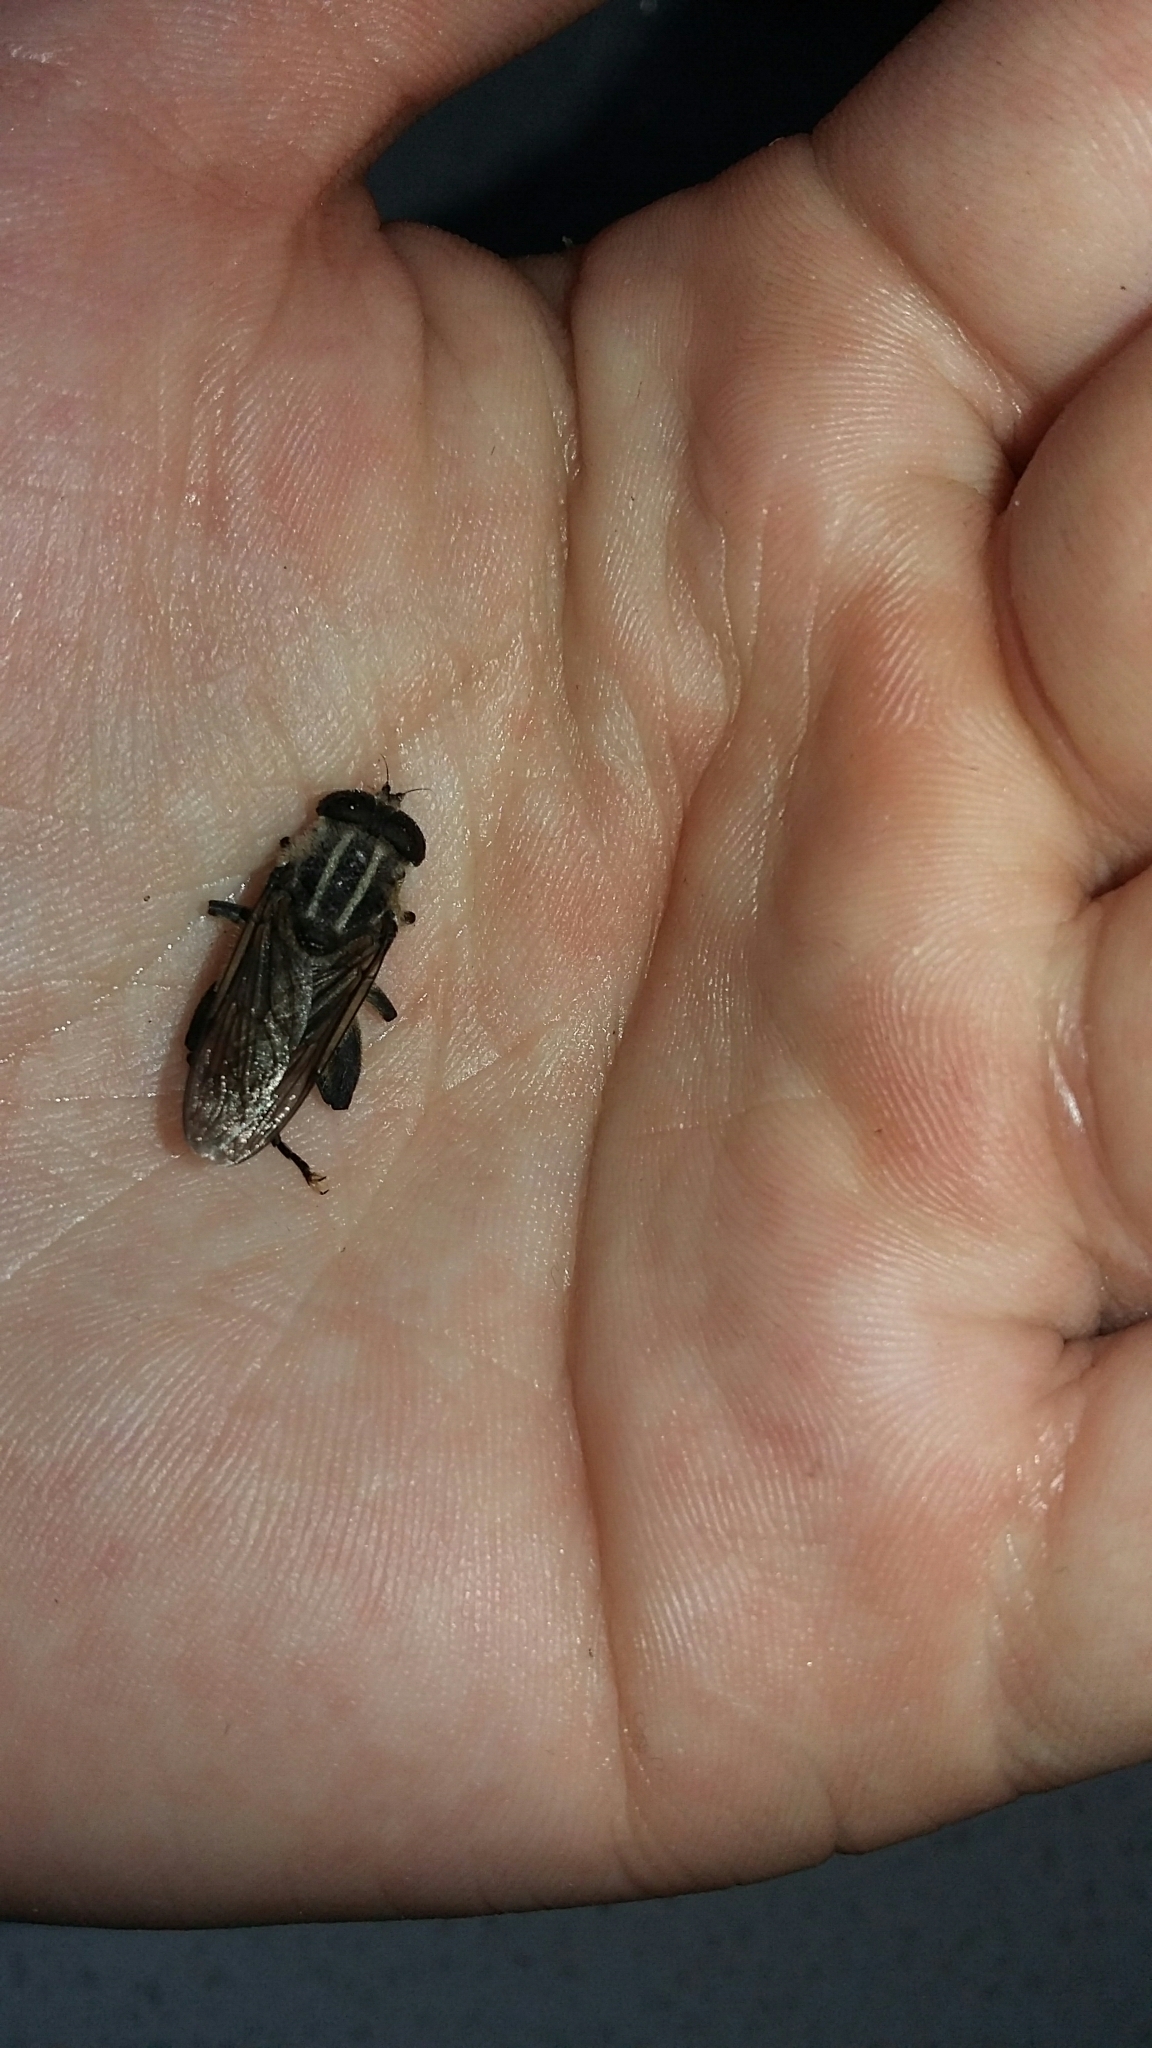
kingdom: Animalia
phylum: Arthropoda
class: Insecta
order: Diptera
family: Syrphidae
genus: Orthoprosopa
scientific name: Orthoprosopa bilineata
